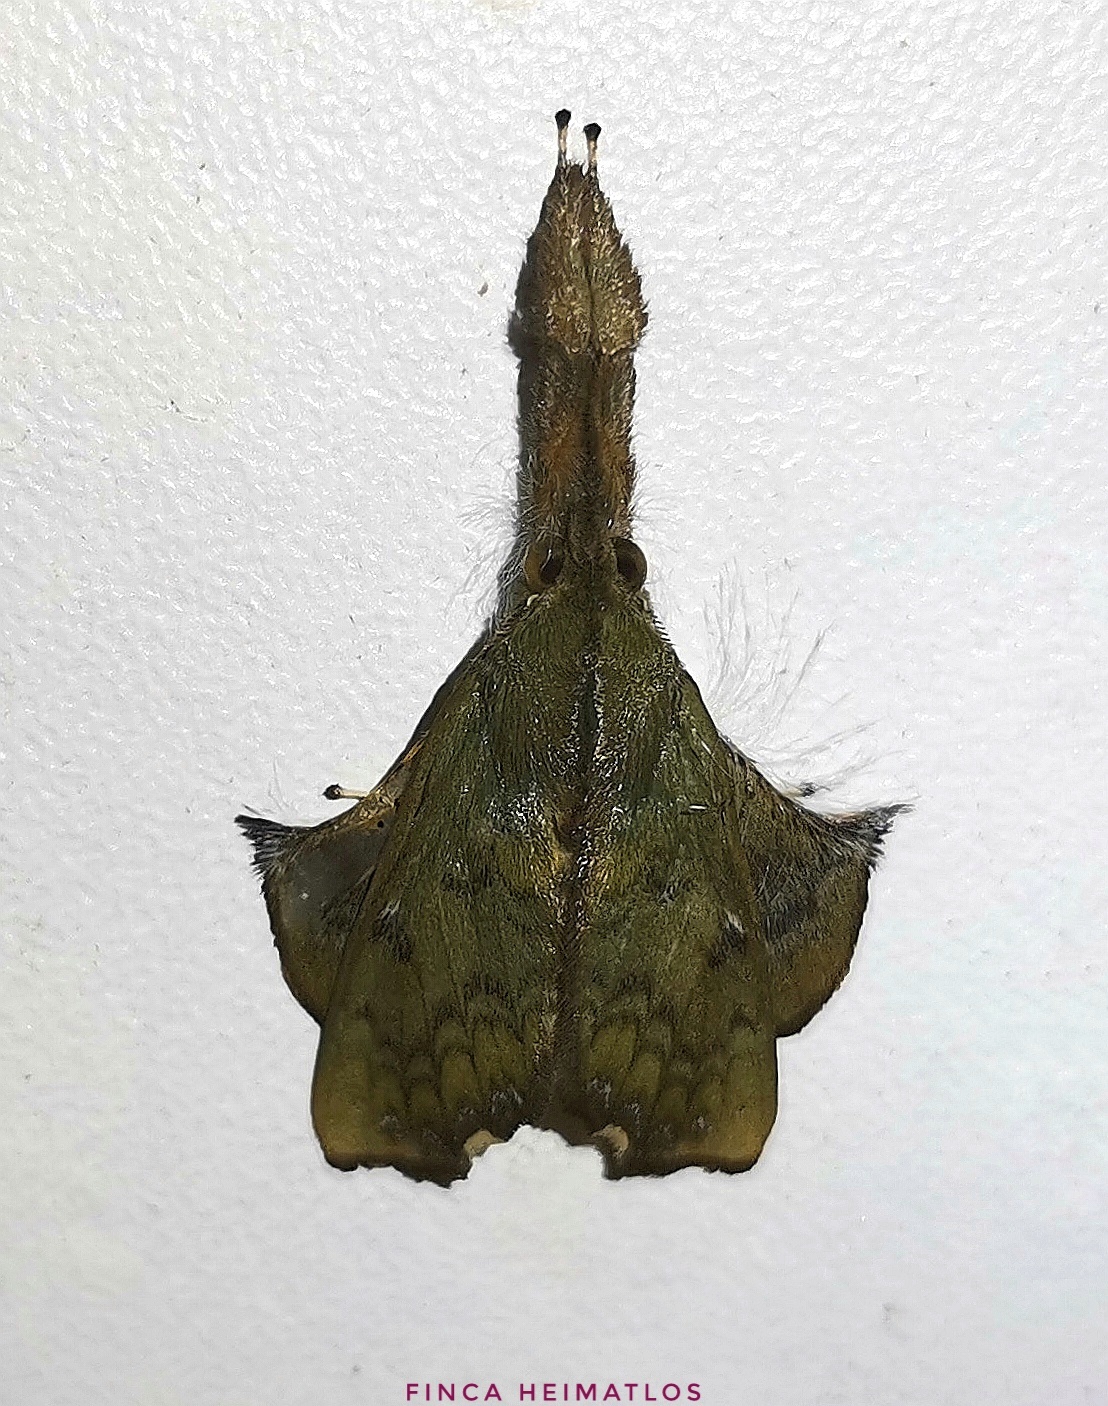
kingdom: Animalia
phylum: Arthropoda
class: Insecta
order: Lepidoptera
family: Erebidae
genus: Desmoloma
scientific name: Desmoloma modesta
